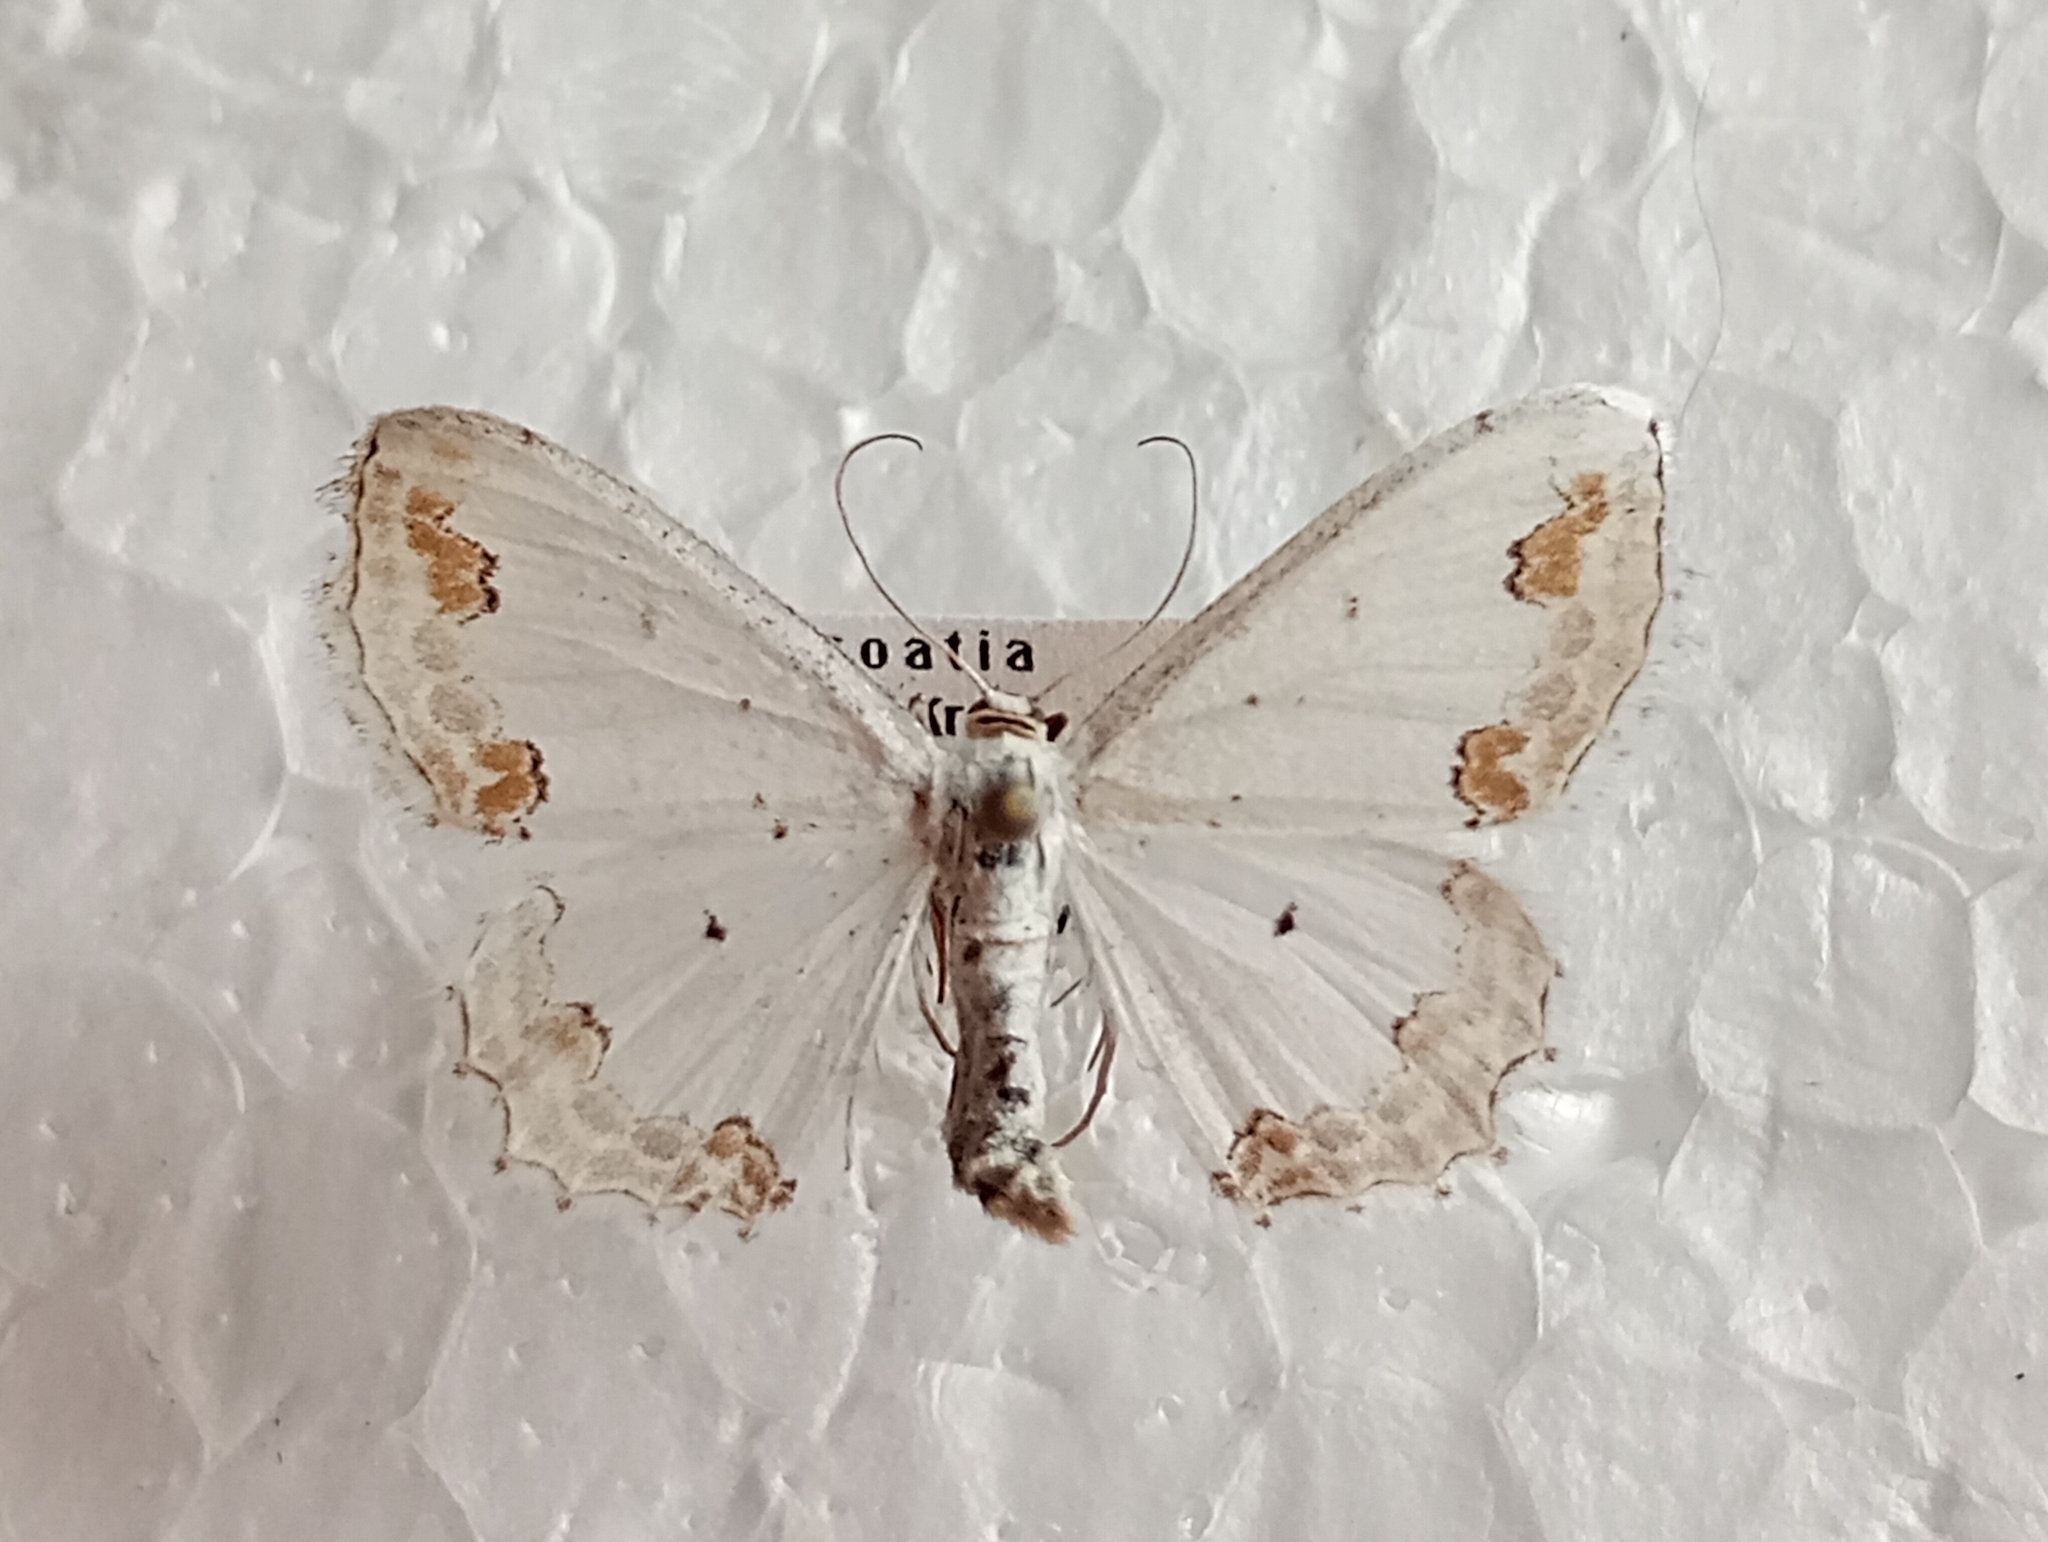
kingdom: Animalia
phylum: Arthropoda
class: Insecta
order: Lepidoptera
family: Geometridae
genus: Scopula
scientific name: Scopula ornata
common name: Lace border
